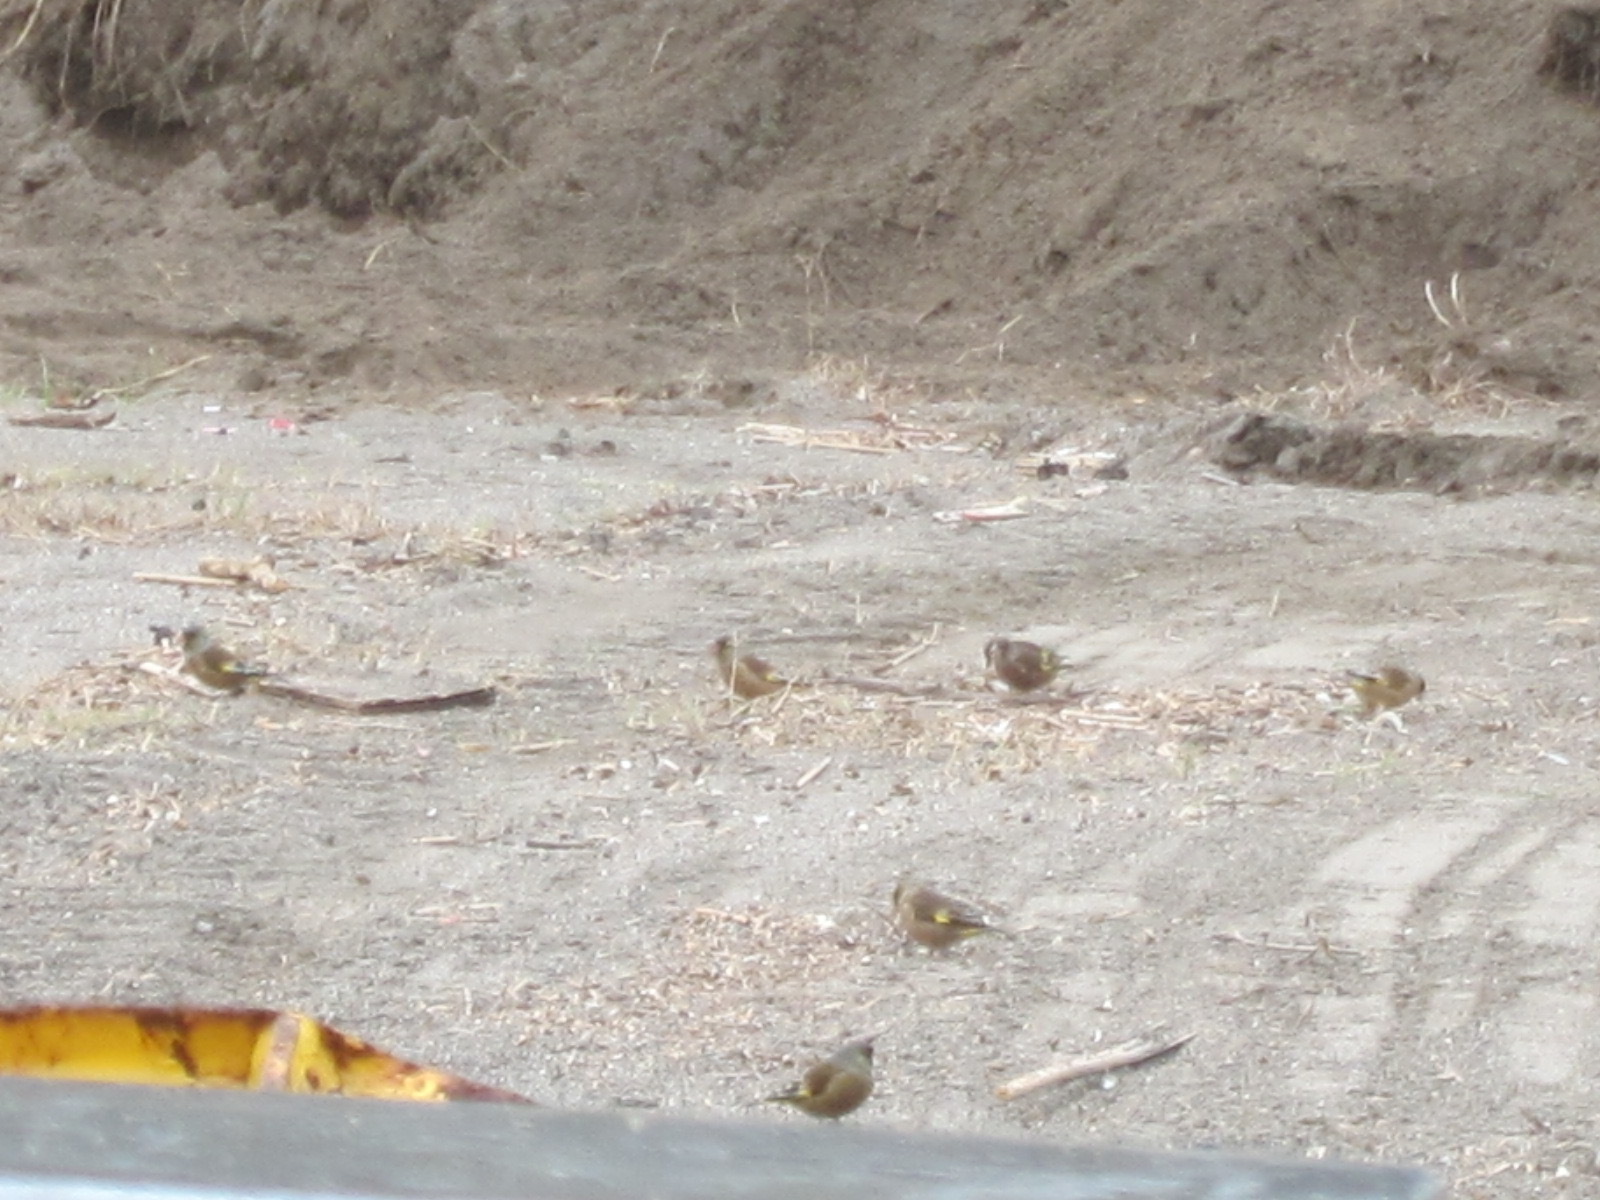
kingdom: Plantae
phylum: Tracheophyta
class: Liliopsida
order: Poales
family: Poaceae
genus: Chloris
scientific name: Chloris sinica
